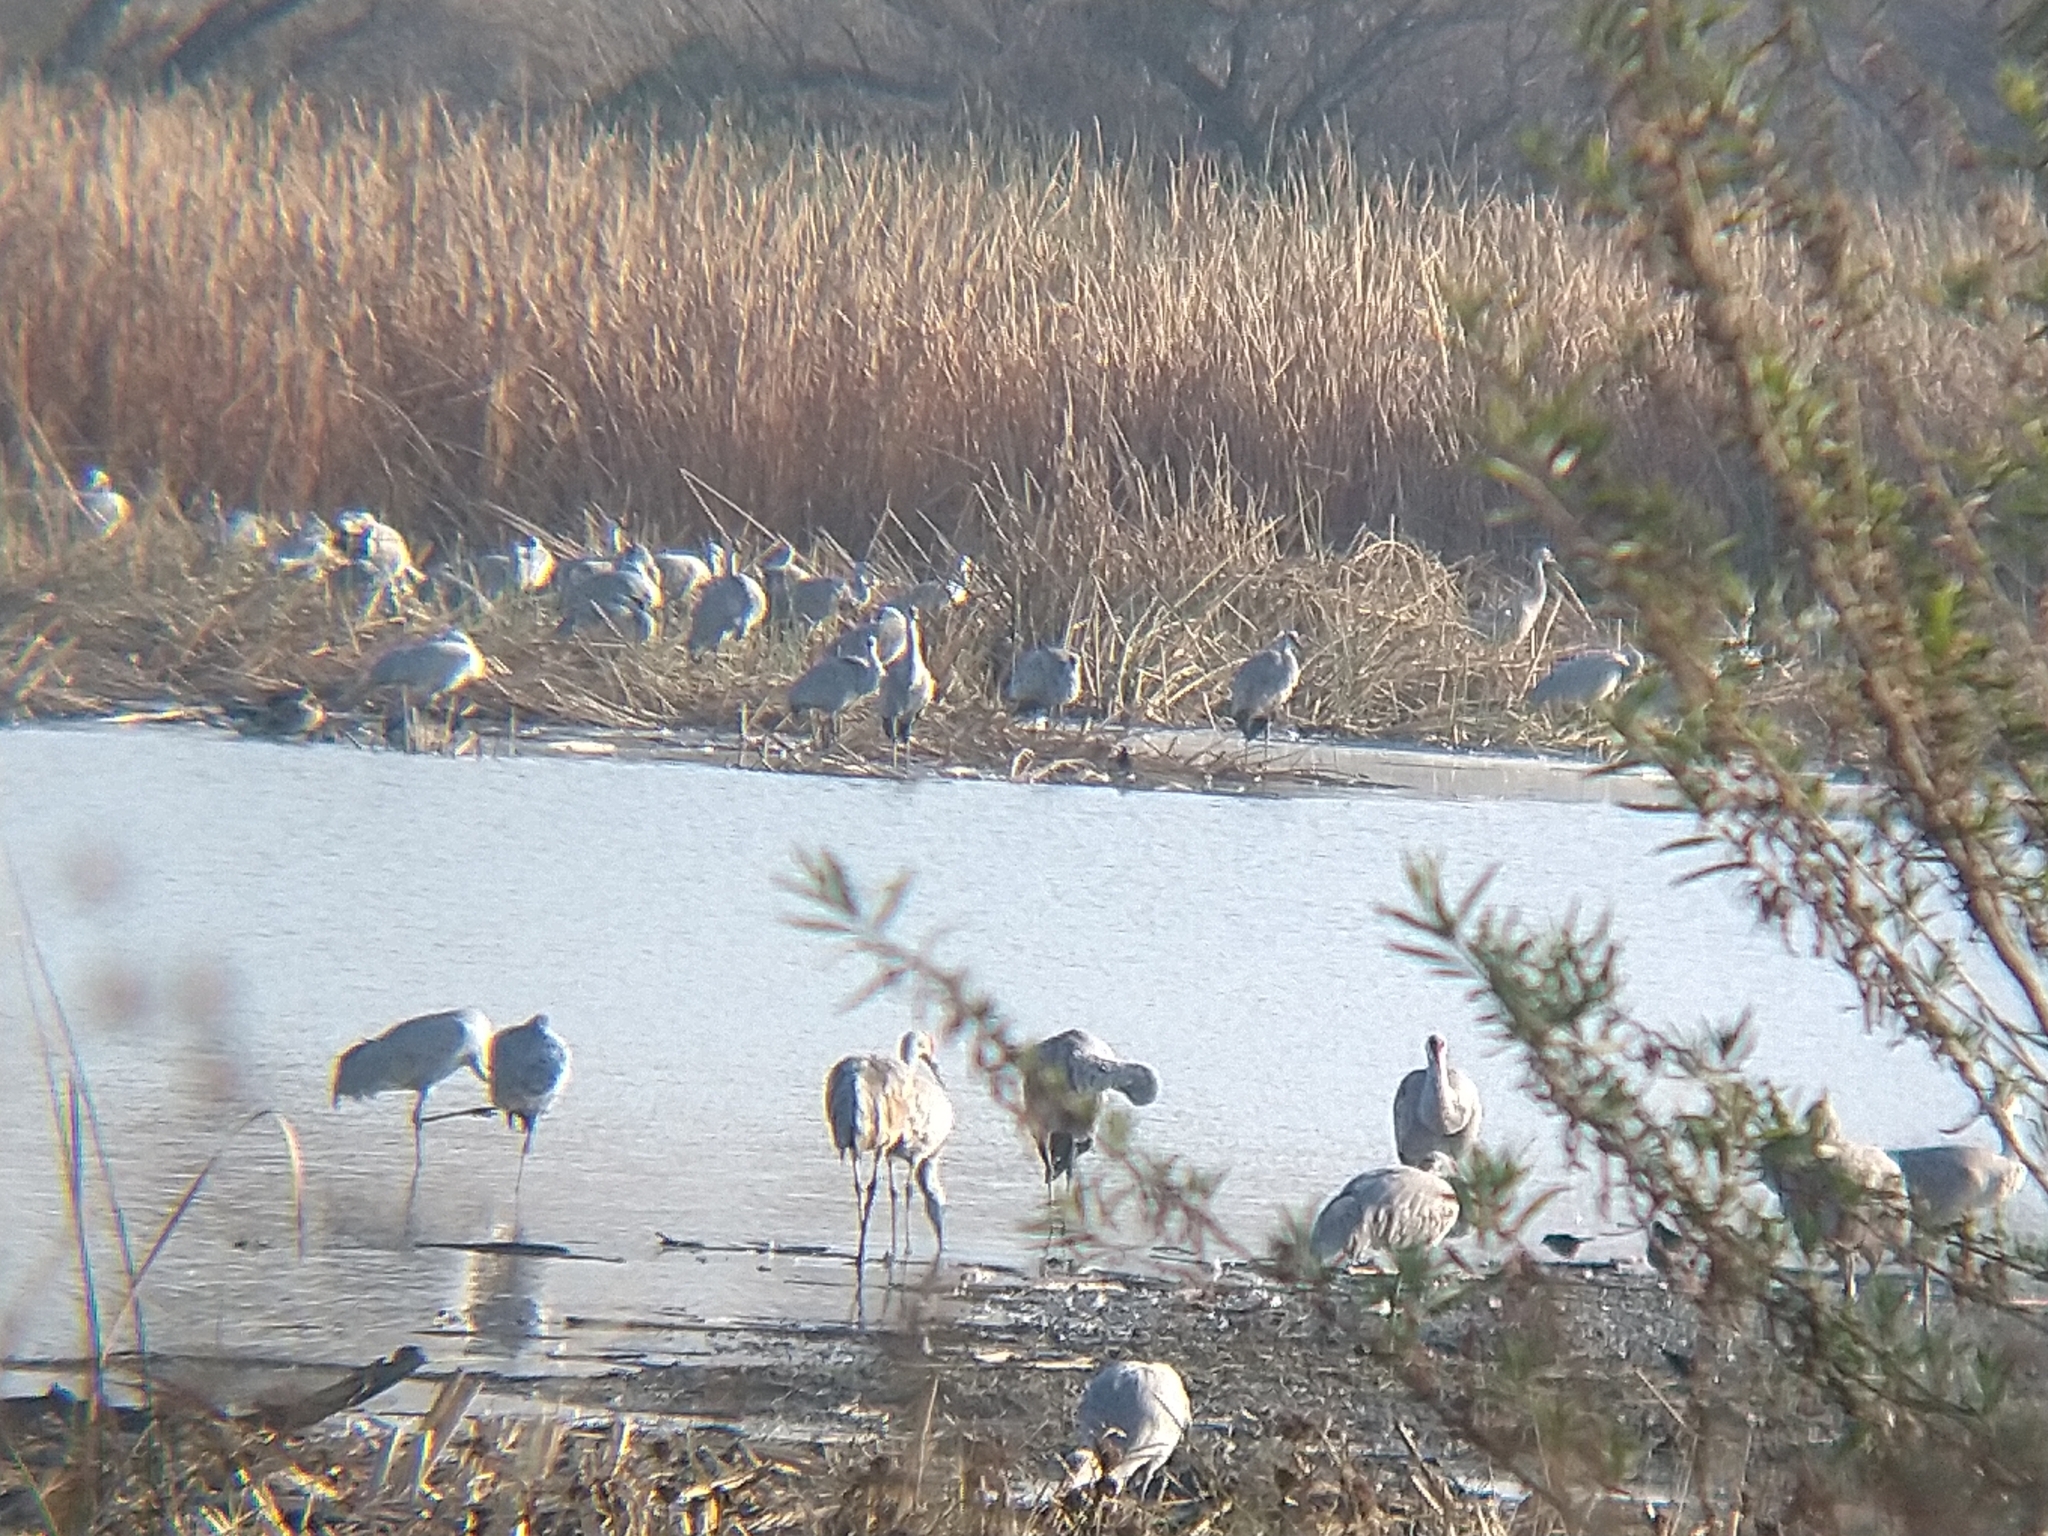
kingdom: Animalia
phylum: Chordata
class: Aves
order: Gruiformes
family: Gruidae
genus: Grus
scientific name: Grus canadensis
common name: Sandhill crane
